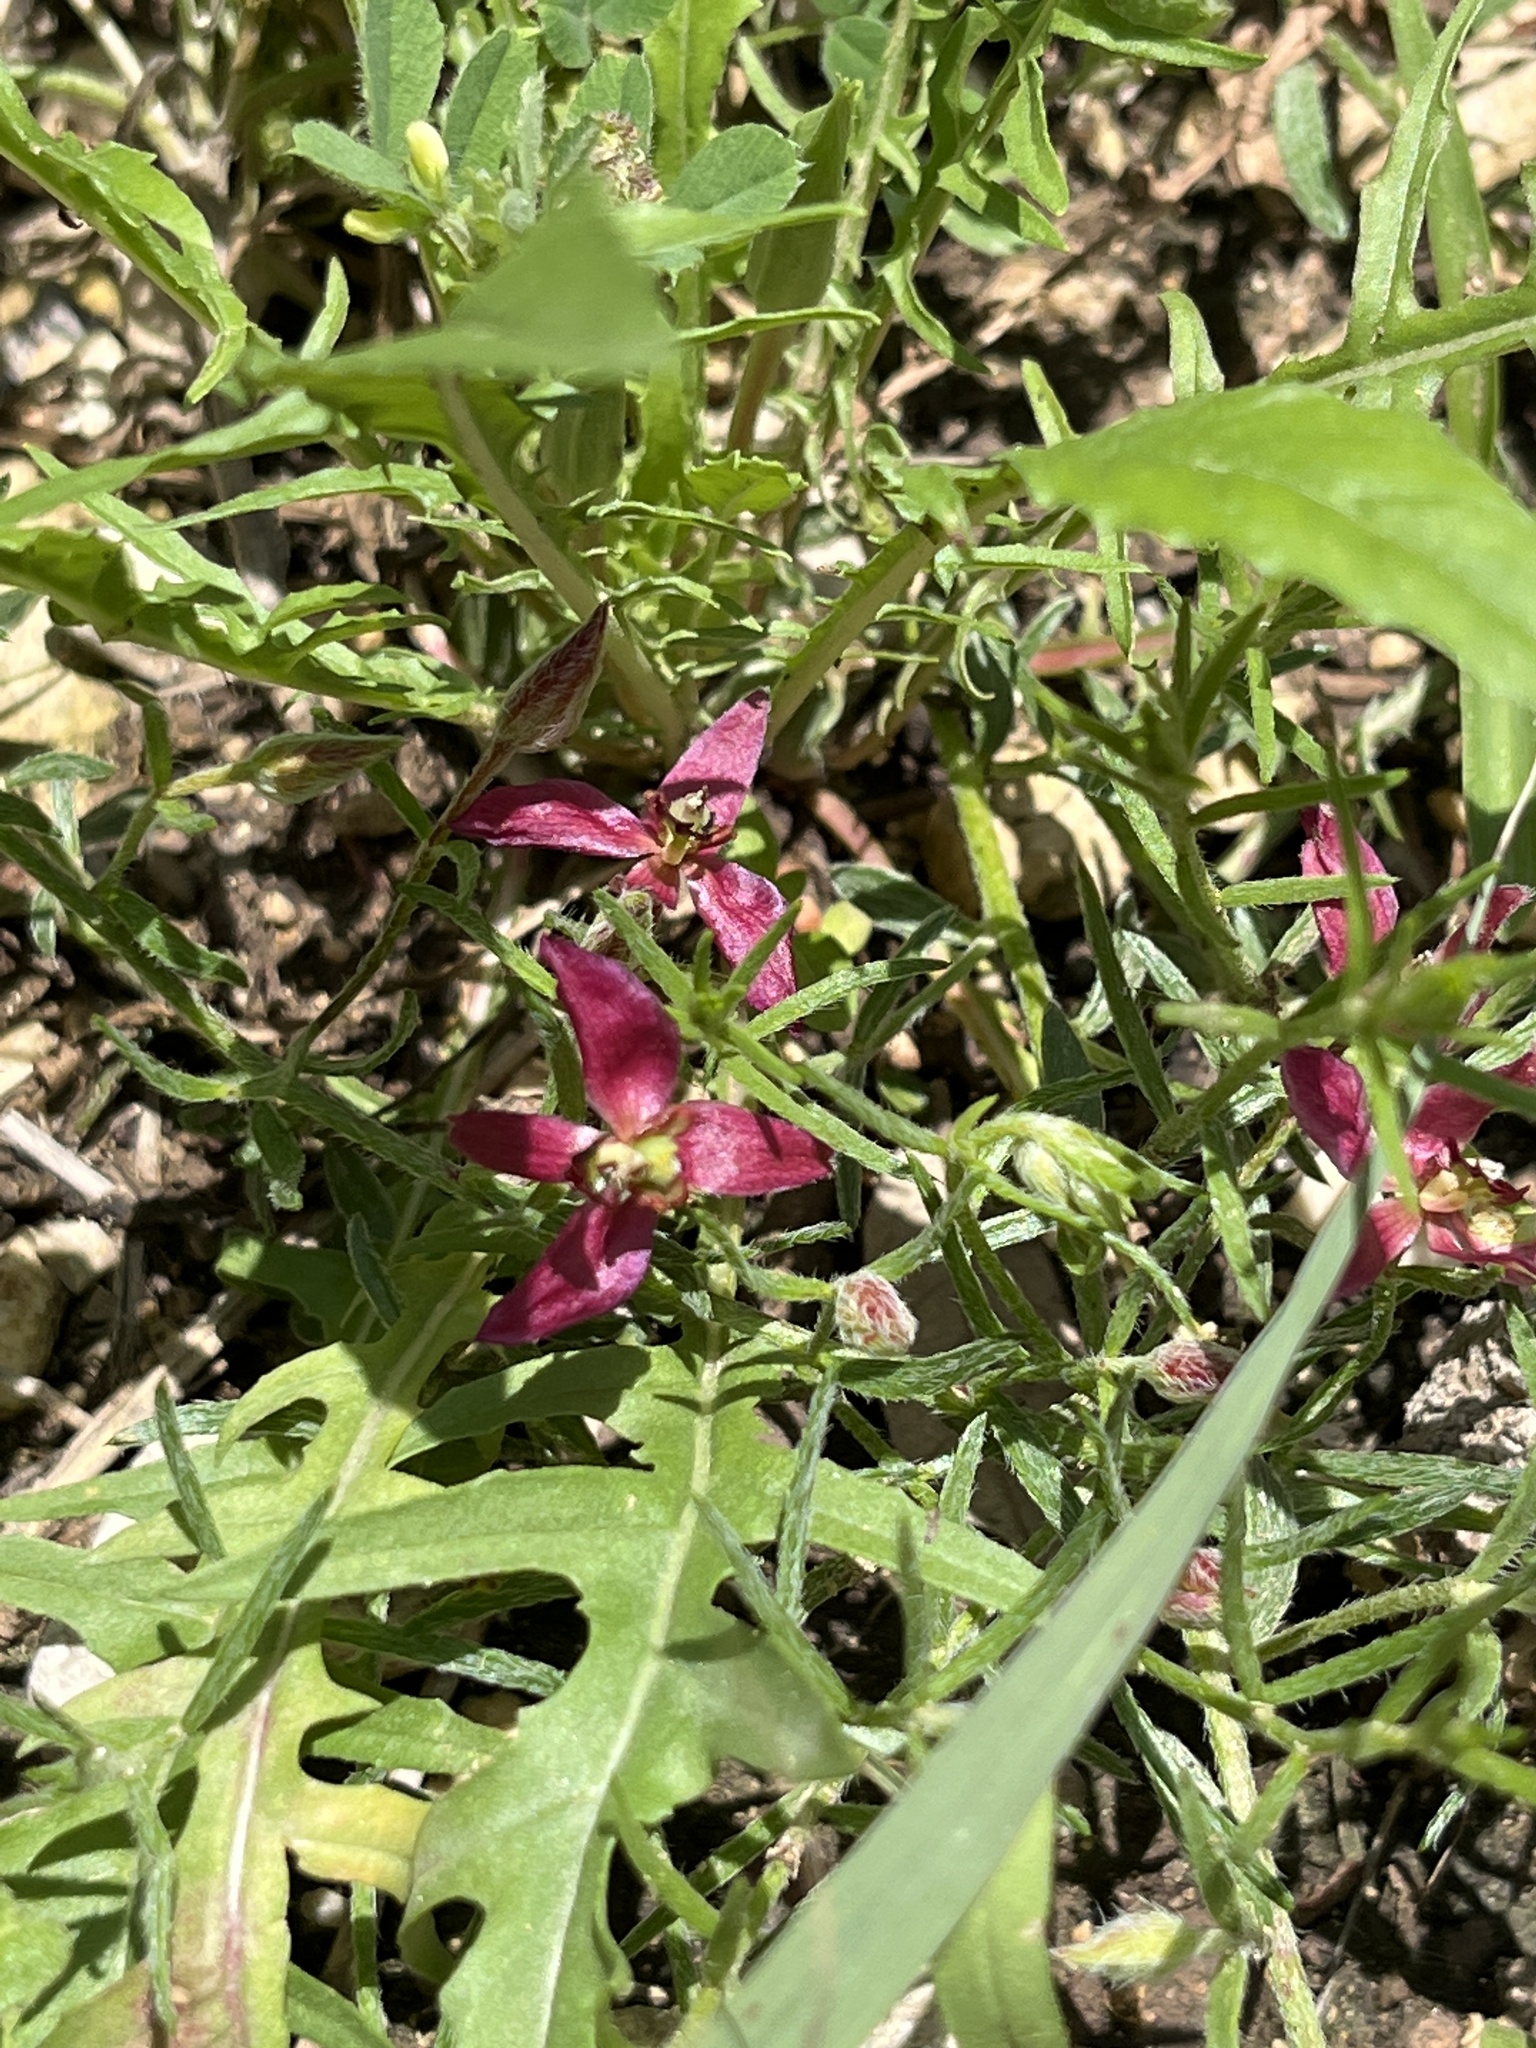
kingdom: Plantae
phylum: Tracheophyta
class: Magnoliopsida
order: Zygophyllales
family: Krameriaceae
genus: Krameria
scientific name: Krameria lanceolata
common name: Ratany
